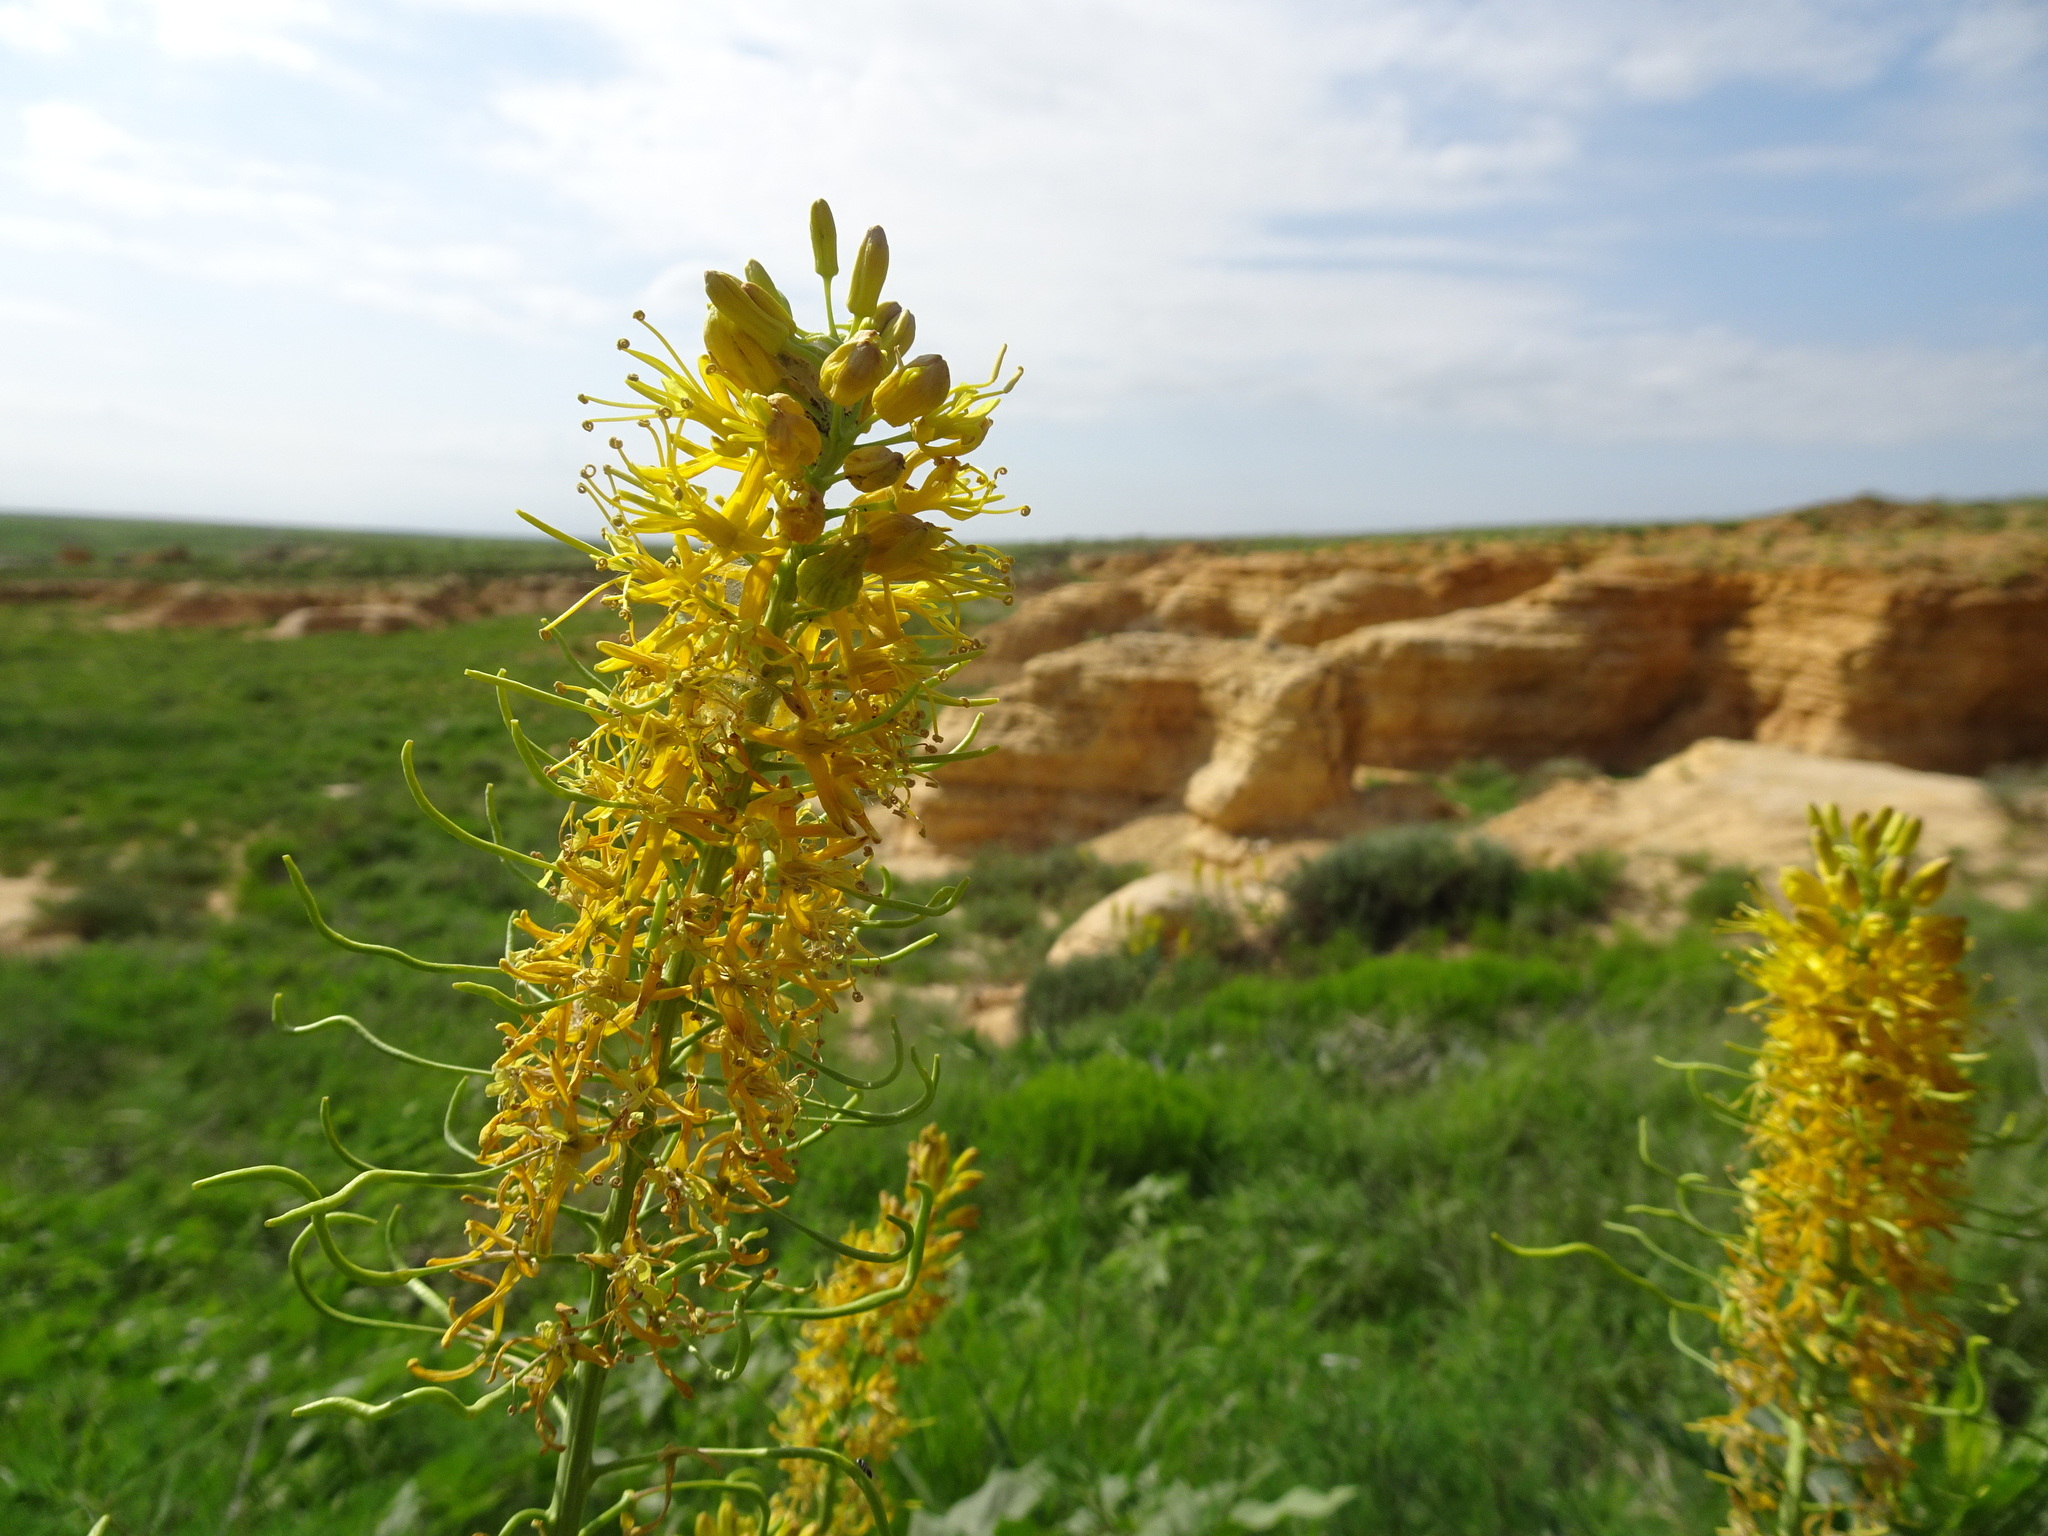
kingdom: Plantae
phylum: Tracheophyta
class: Magnoliopsida
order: Brassicales
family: Brassicaceae
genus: Stanleya
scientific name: Stanleya pinnata
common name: Prince's-plume
